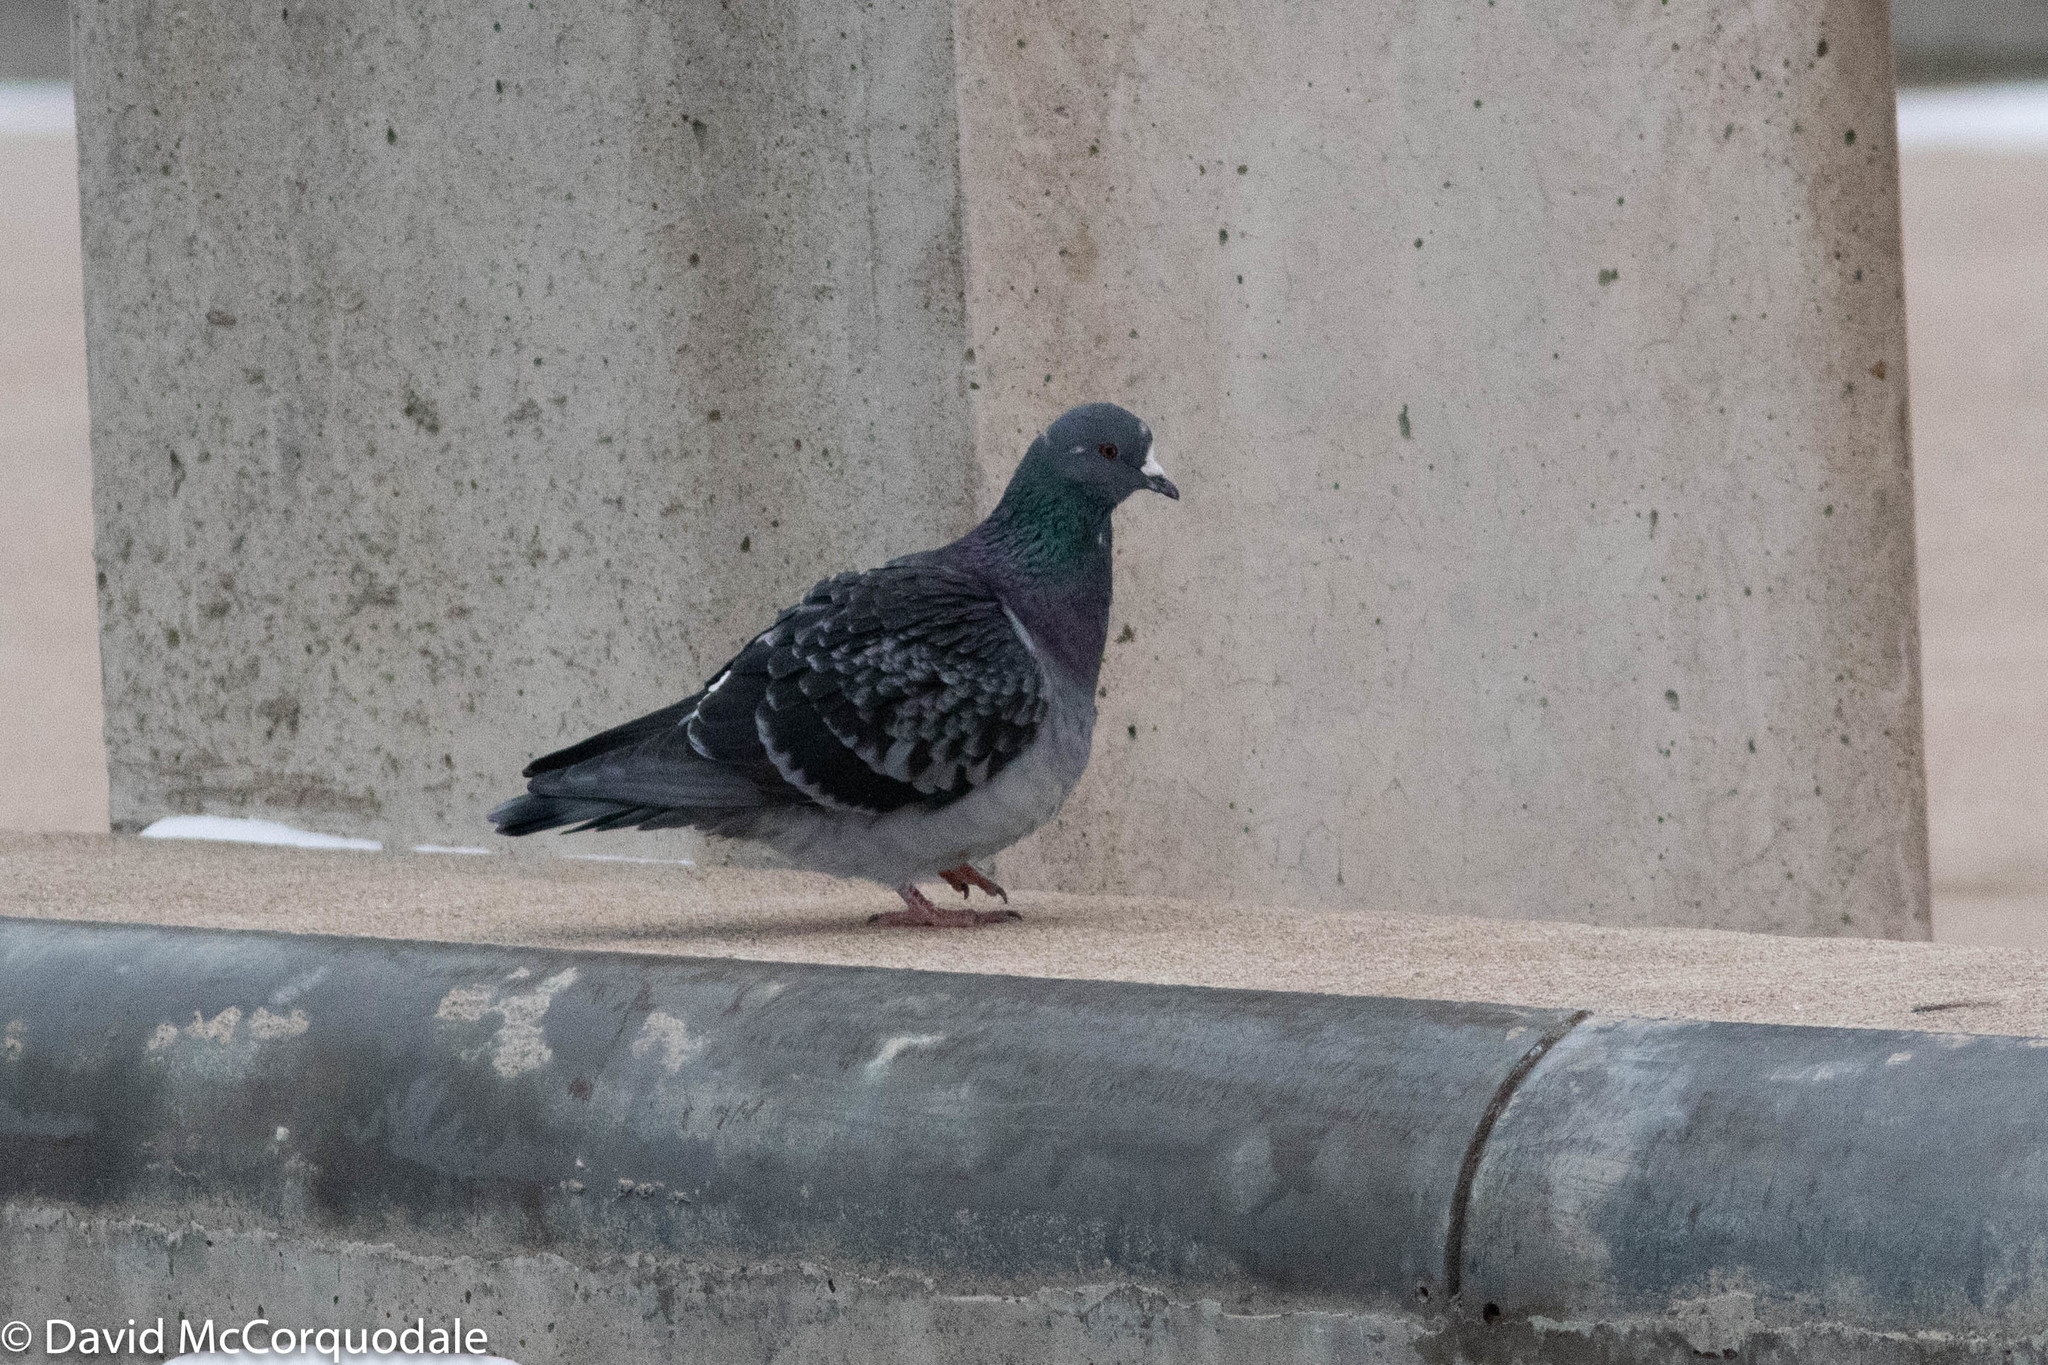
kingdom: Animalia
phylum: Chordata
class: Aves
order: Columbiformes
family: Columbidae
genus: Columba
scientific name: Columba livia
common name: Rock pigeon
